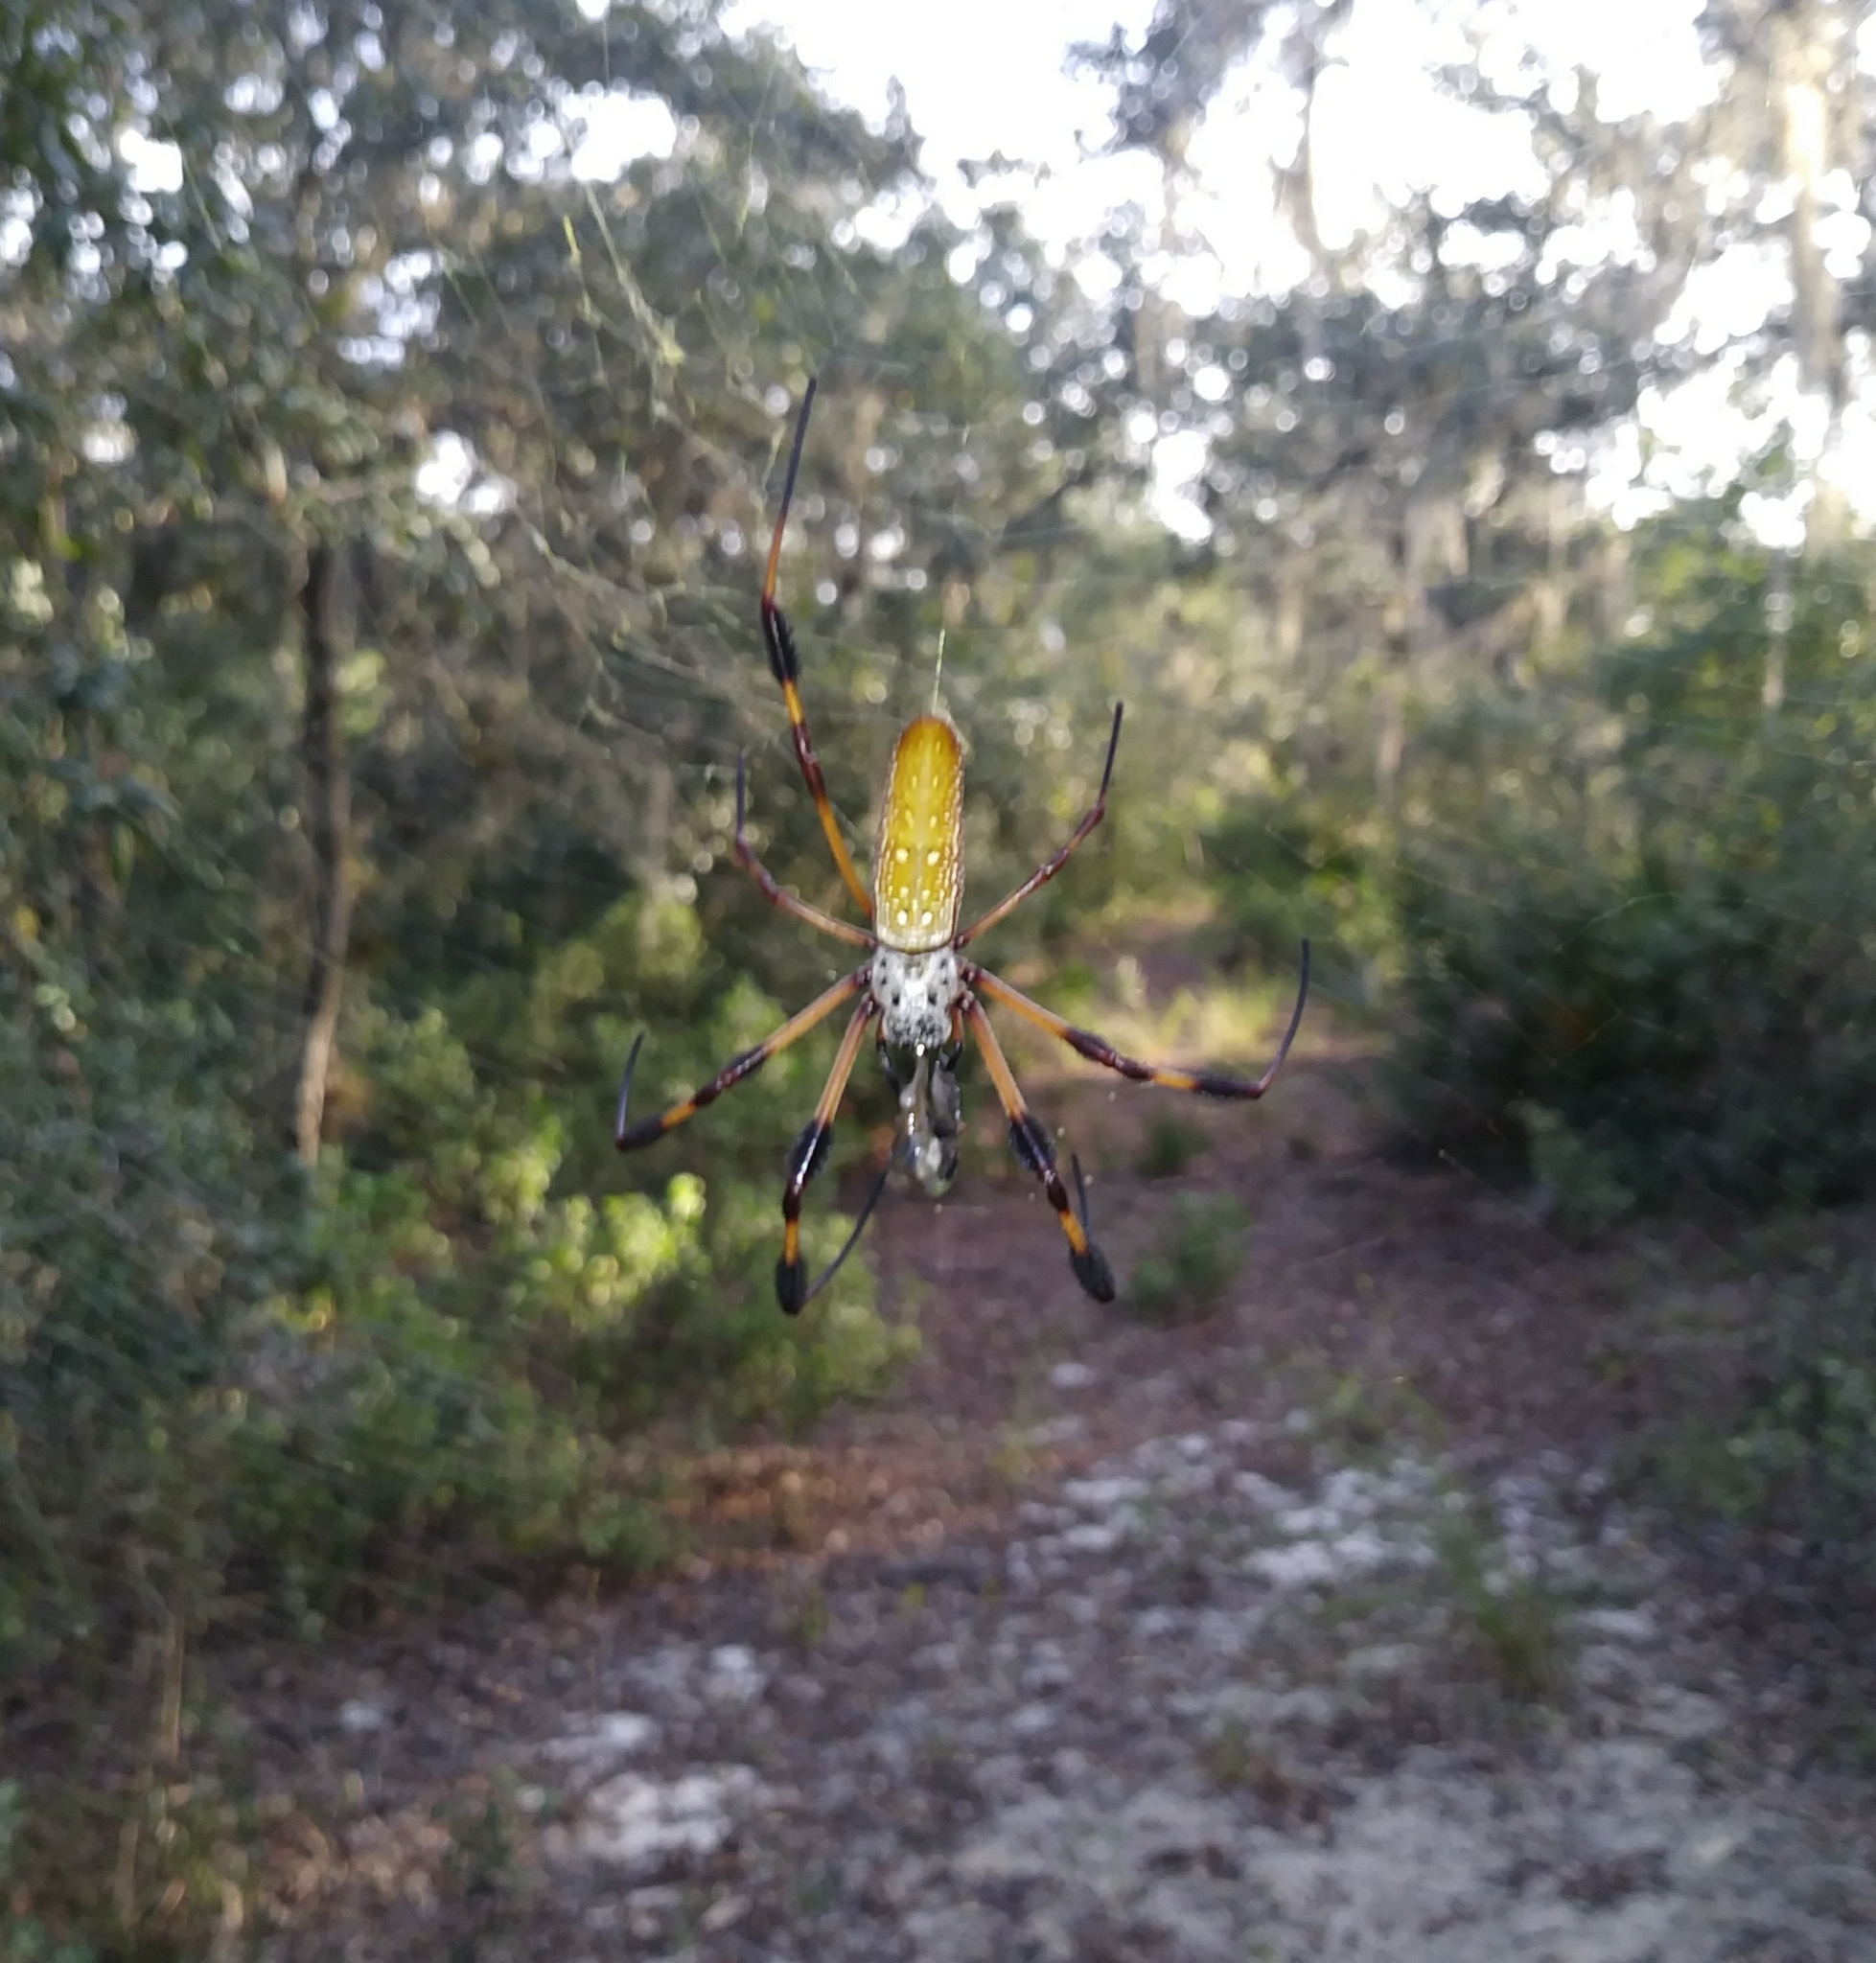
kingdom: Animalia
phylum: Arthropoda
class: Arachnida
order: Araneae
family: Araneidae
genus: Trichonephila
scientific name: Trichonephila clavipes
